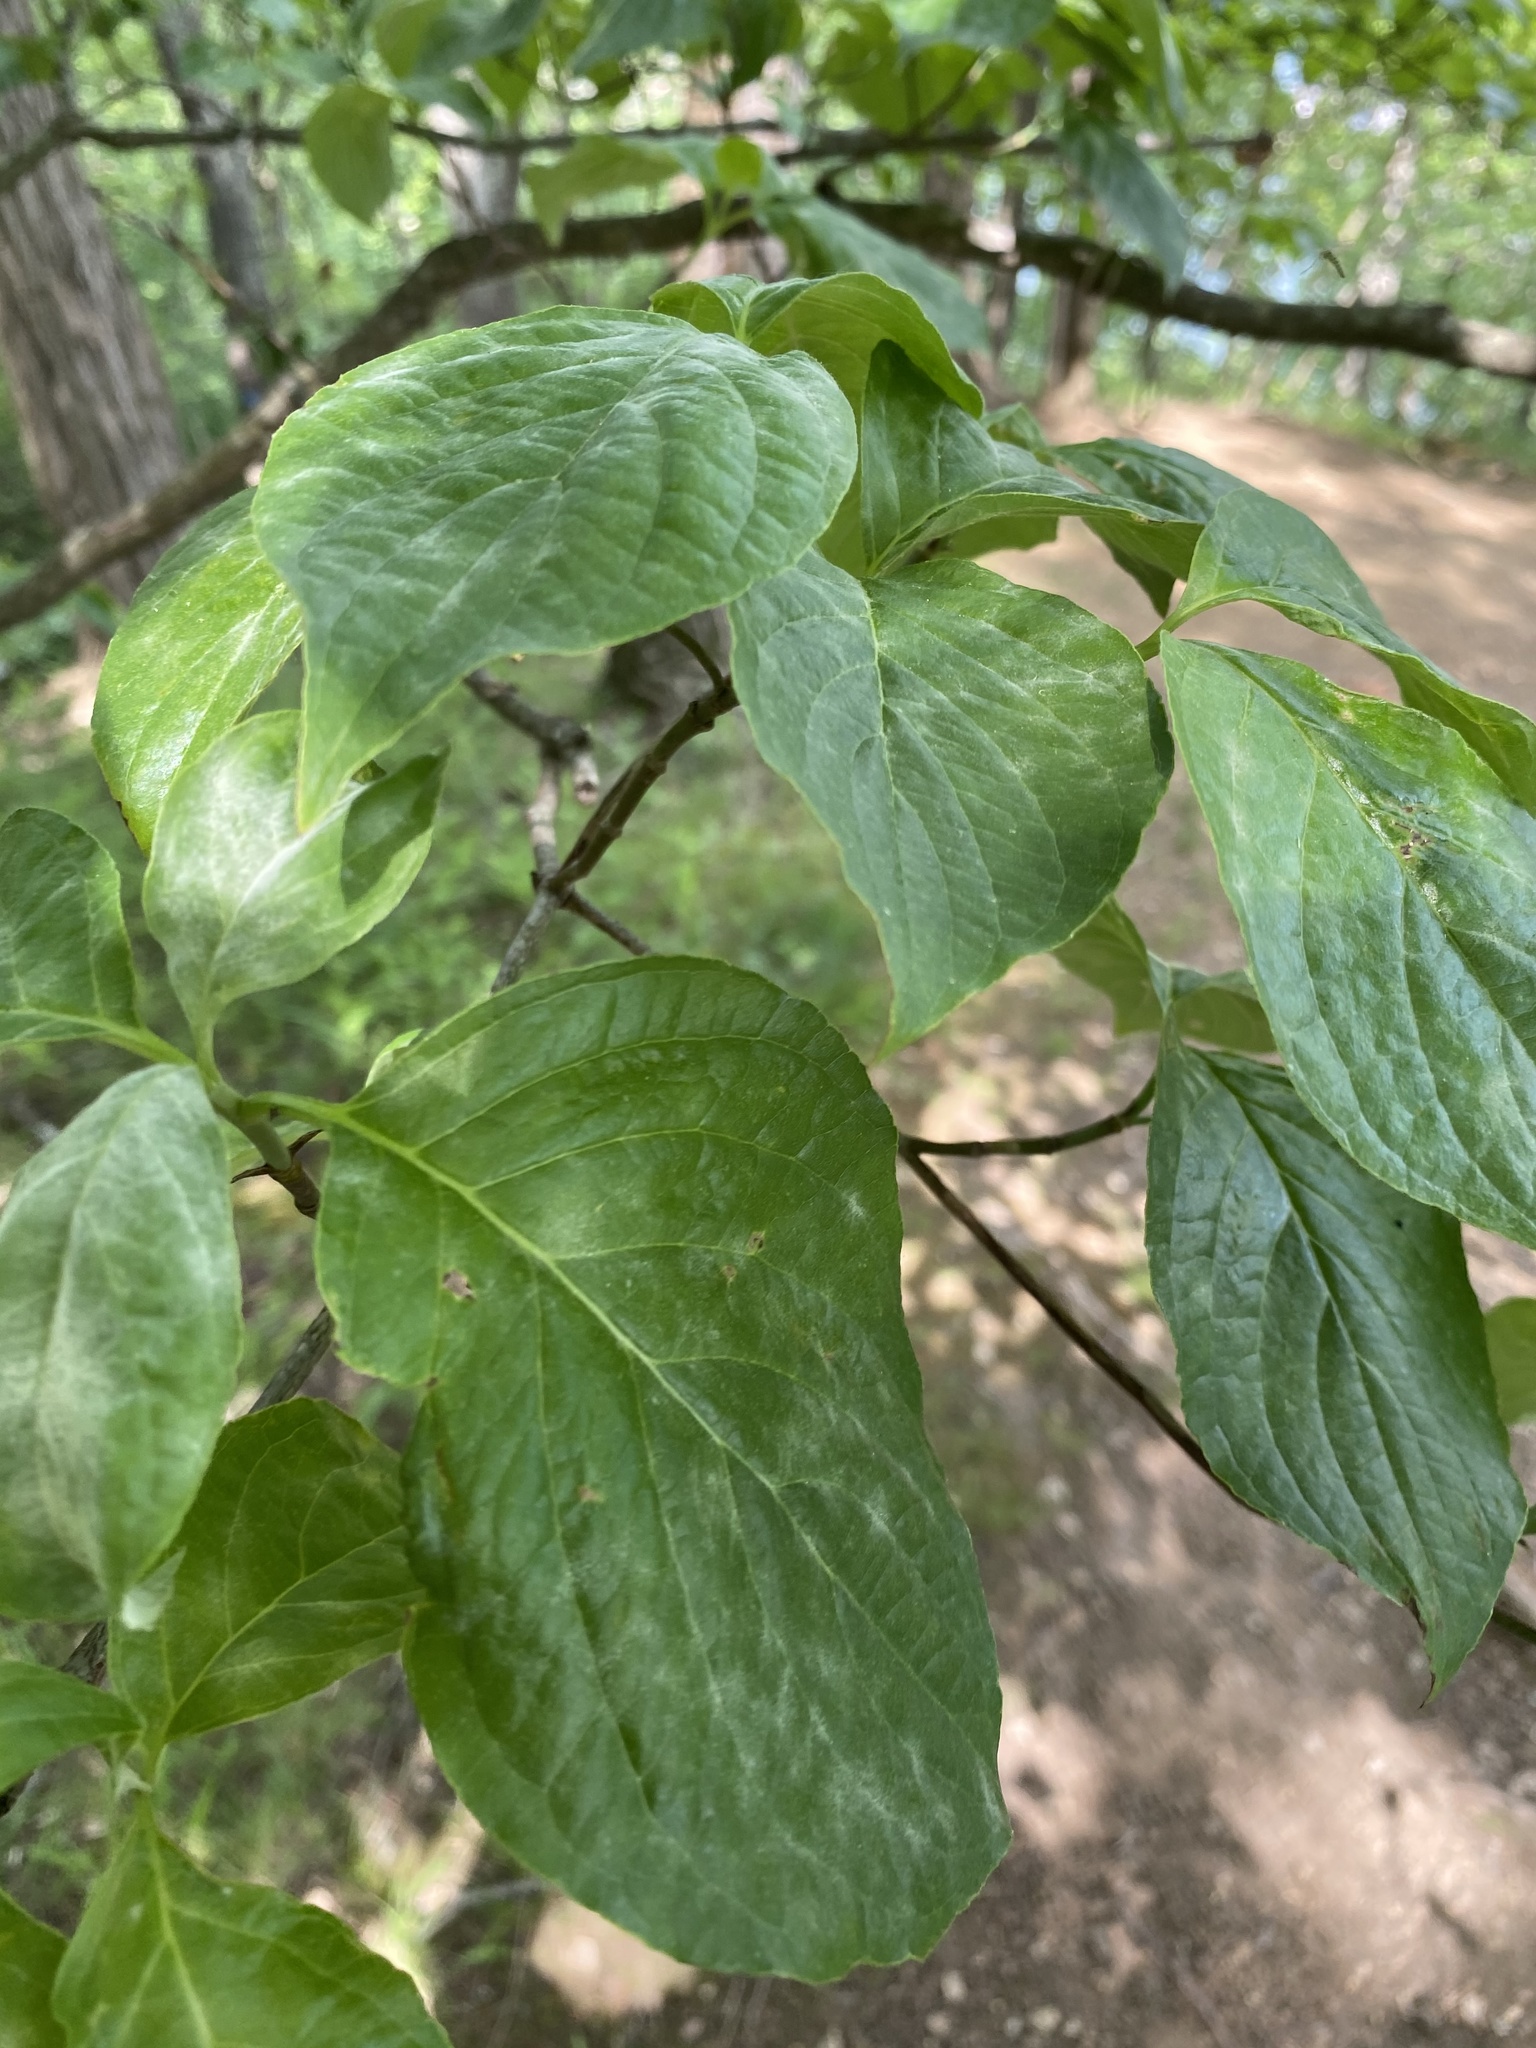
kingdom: Plantae
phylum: Tracheophyta
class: Magnoliopsida
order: Cornales
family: Cornaceae
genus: Cornus
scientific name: Cornus florida
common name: Flowering dogwood
